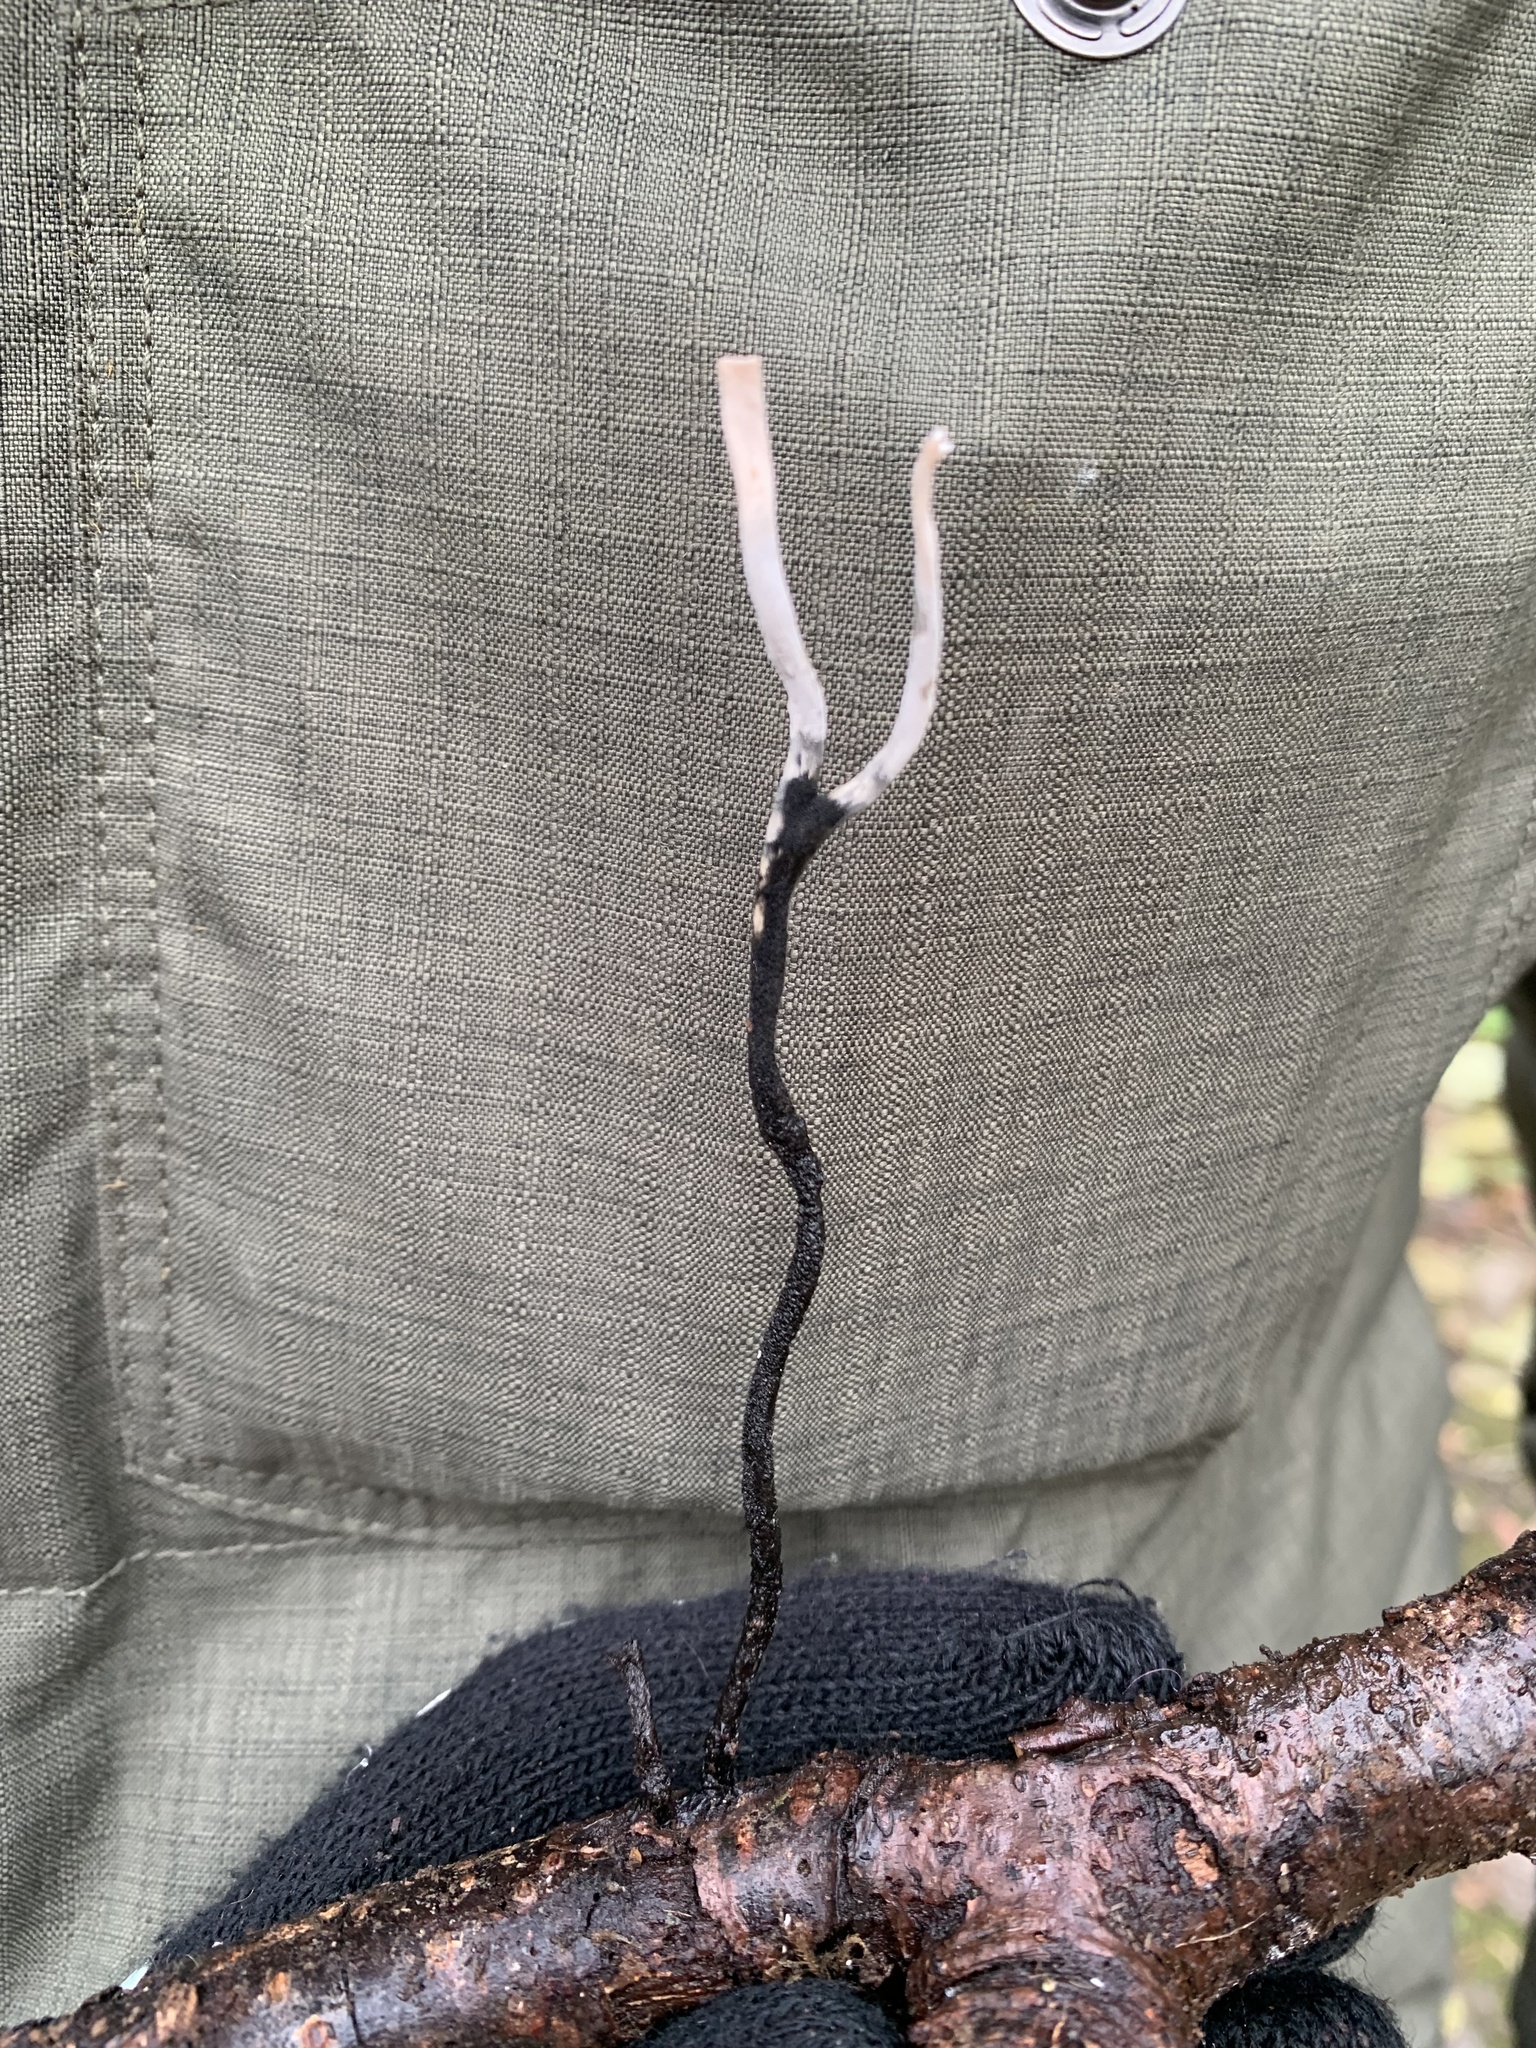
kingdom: Fungi
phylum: Ascomycota
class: Sordariomycetes
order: Xylariales
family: Xylariaceae
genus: Xylaria
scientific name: Xylaria hypoxylon
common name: Candle-snuff fungus
